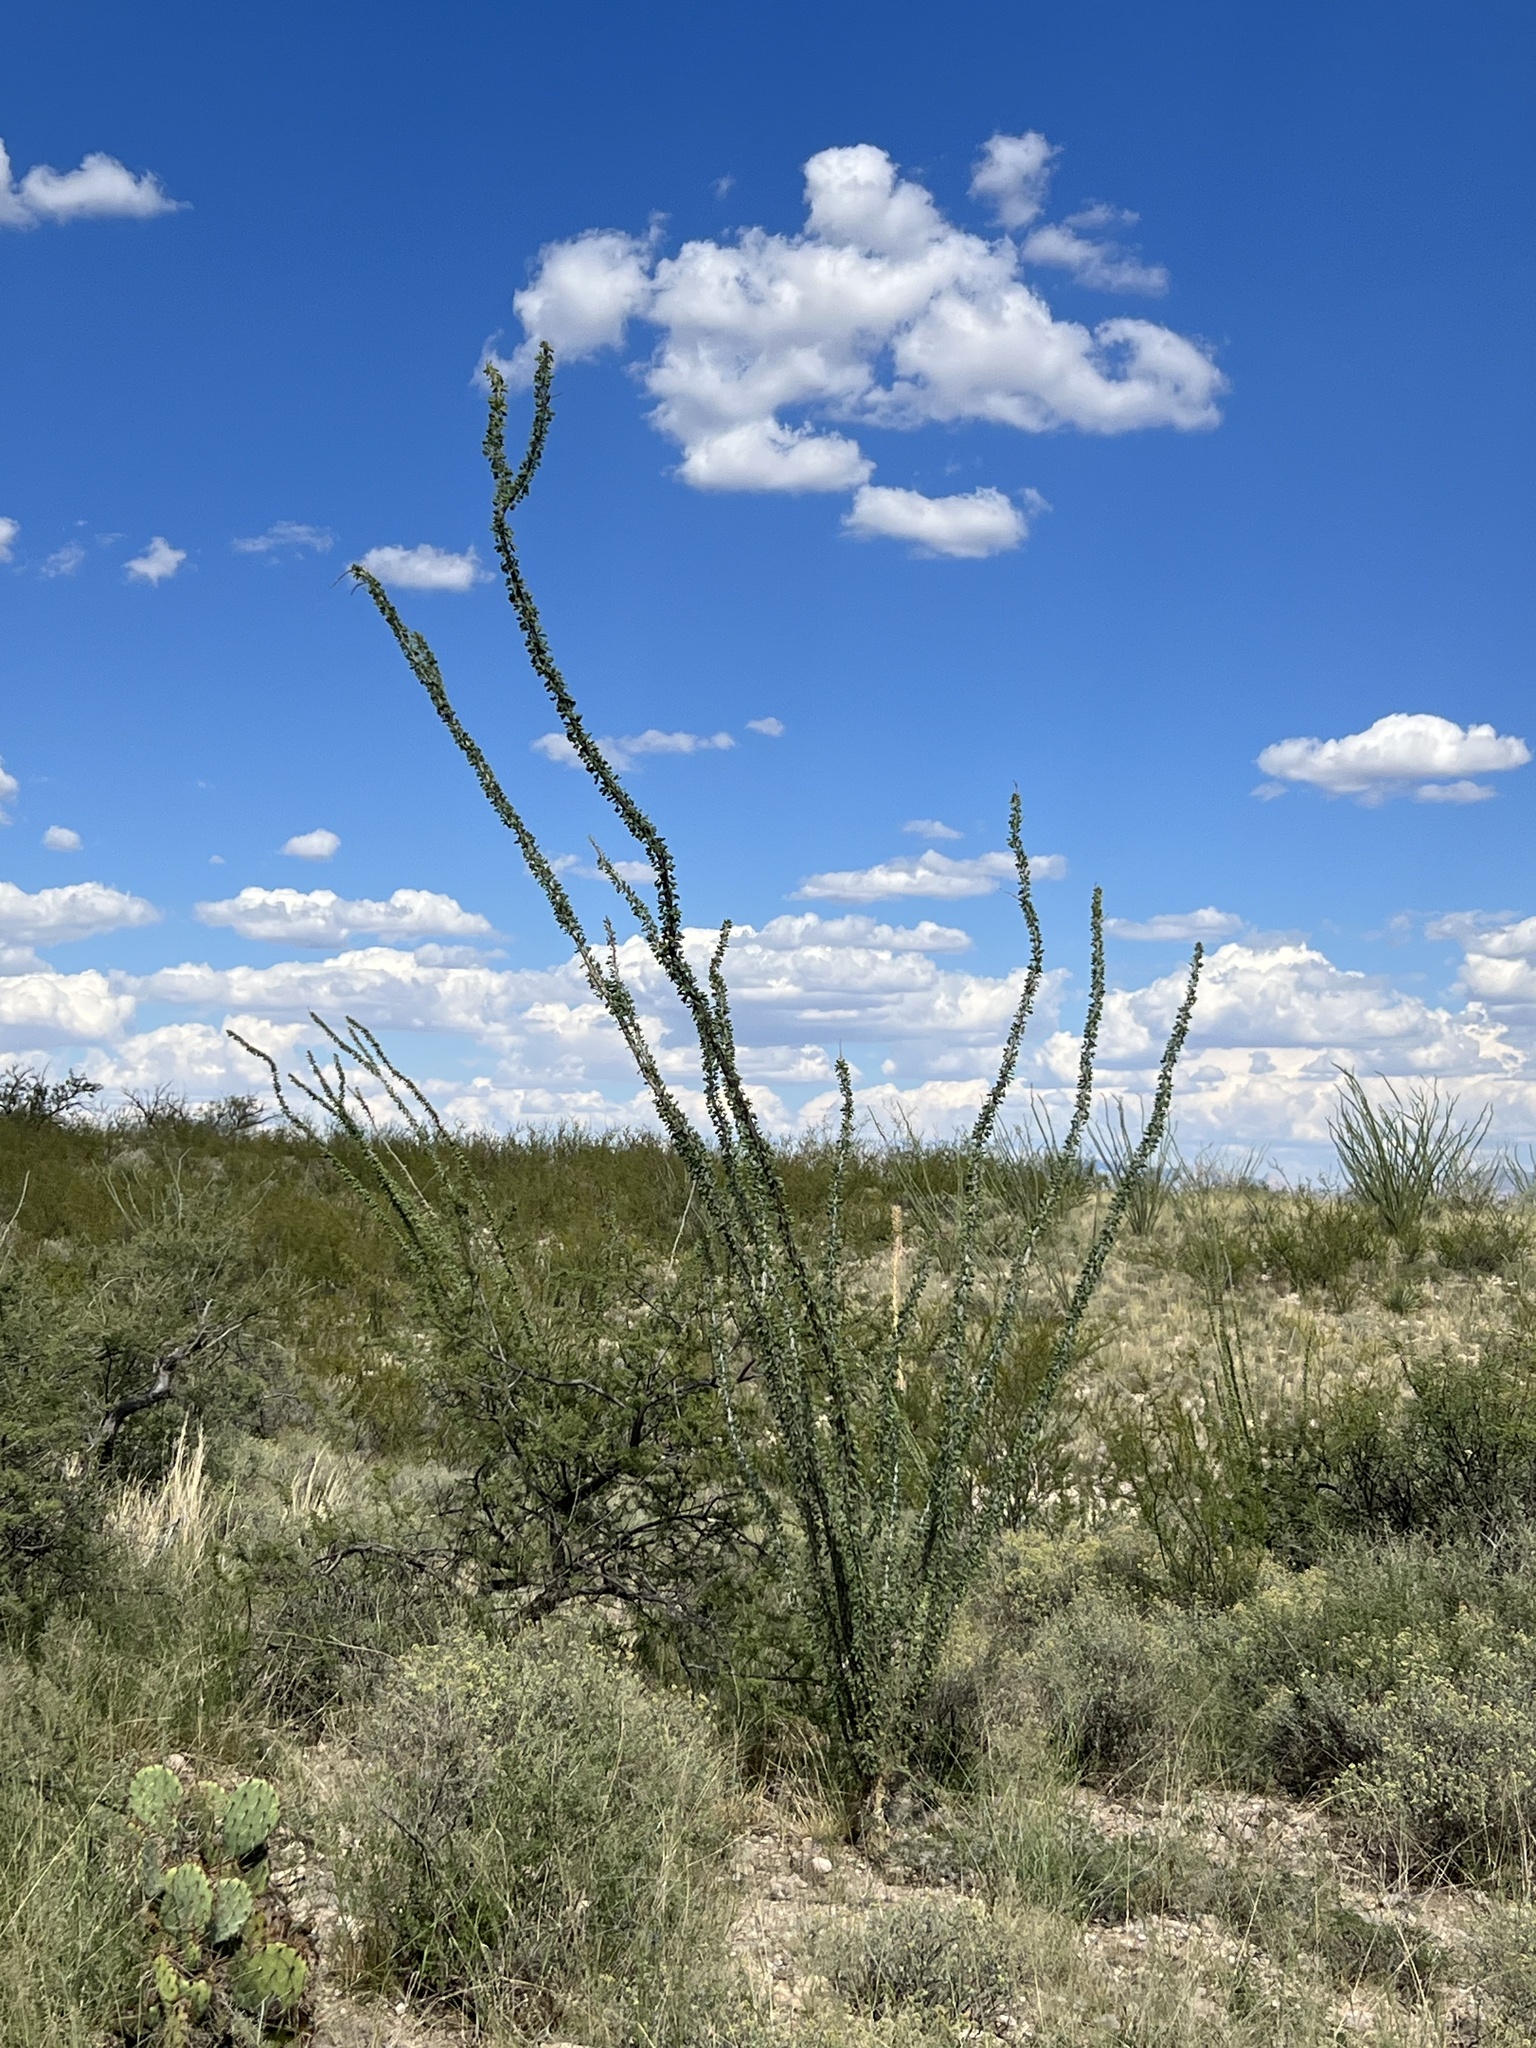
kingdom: Plantae
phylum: Tracheophyta
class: Magnoliopsida
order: Ericales
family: Fouquieriaceae
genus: Fouquieria
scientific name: Fouquieria splendens
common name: Vine-cactus
